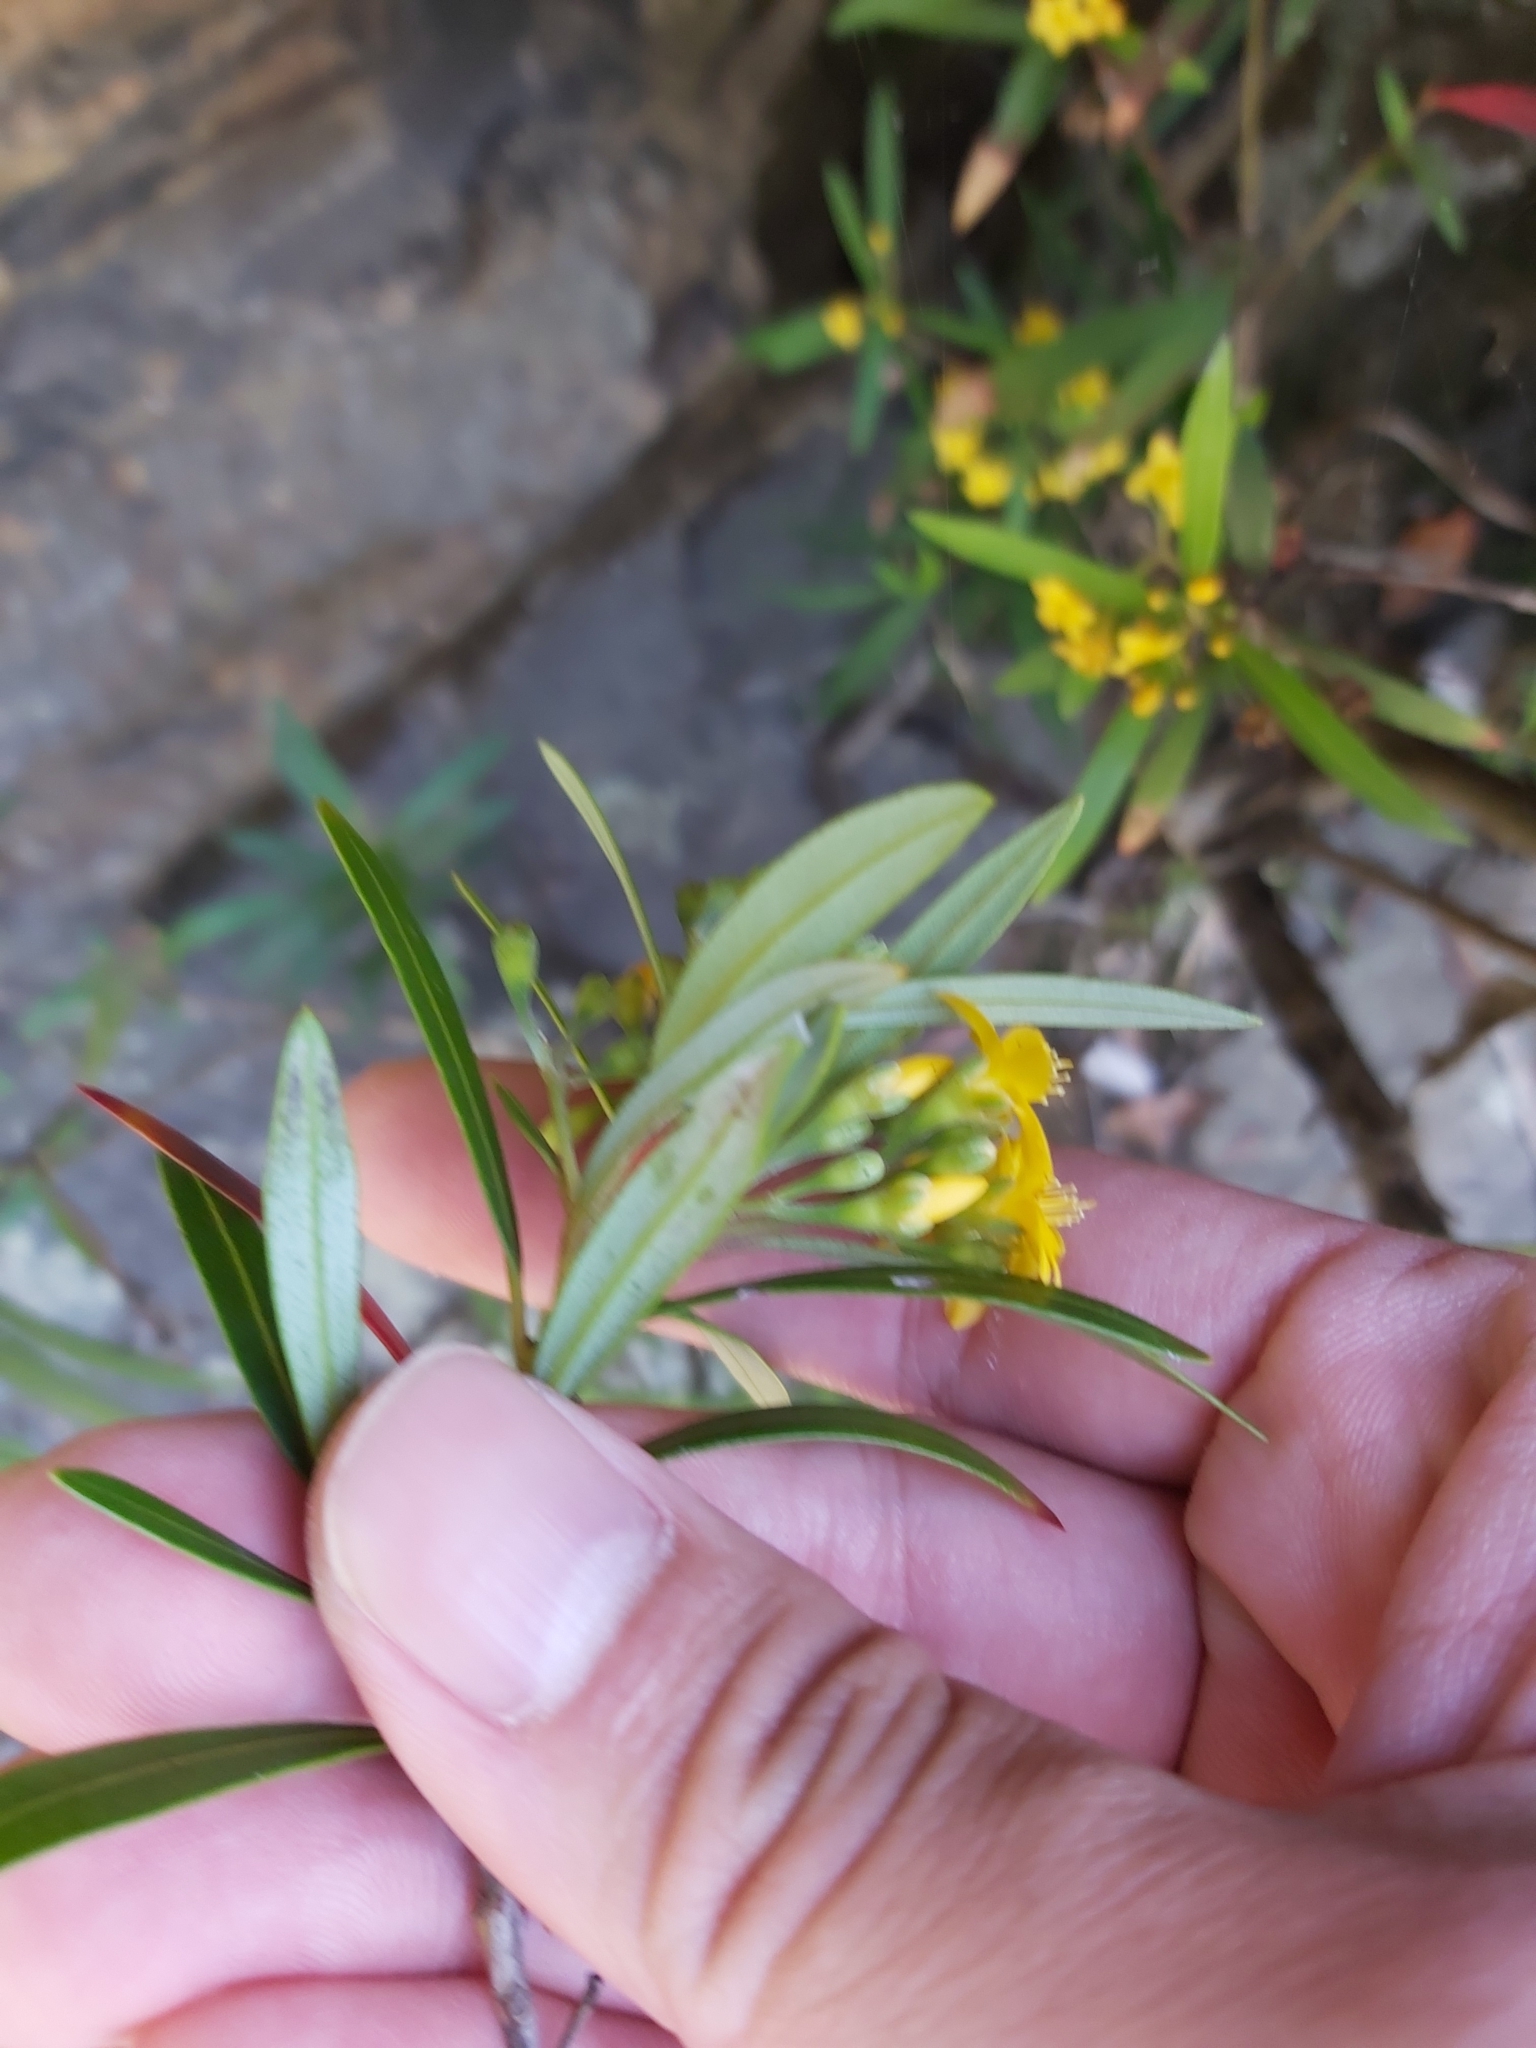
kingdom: Plantae
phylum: Tracheophyta
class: Magnoliopsida
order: Myrtales
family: Myrtaceae
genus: Tristania
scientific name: Tristania neriifolia
